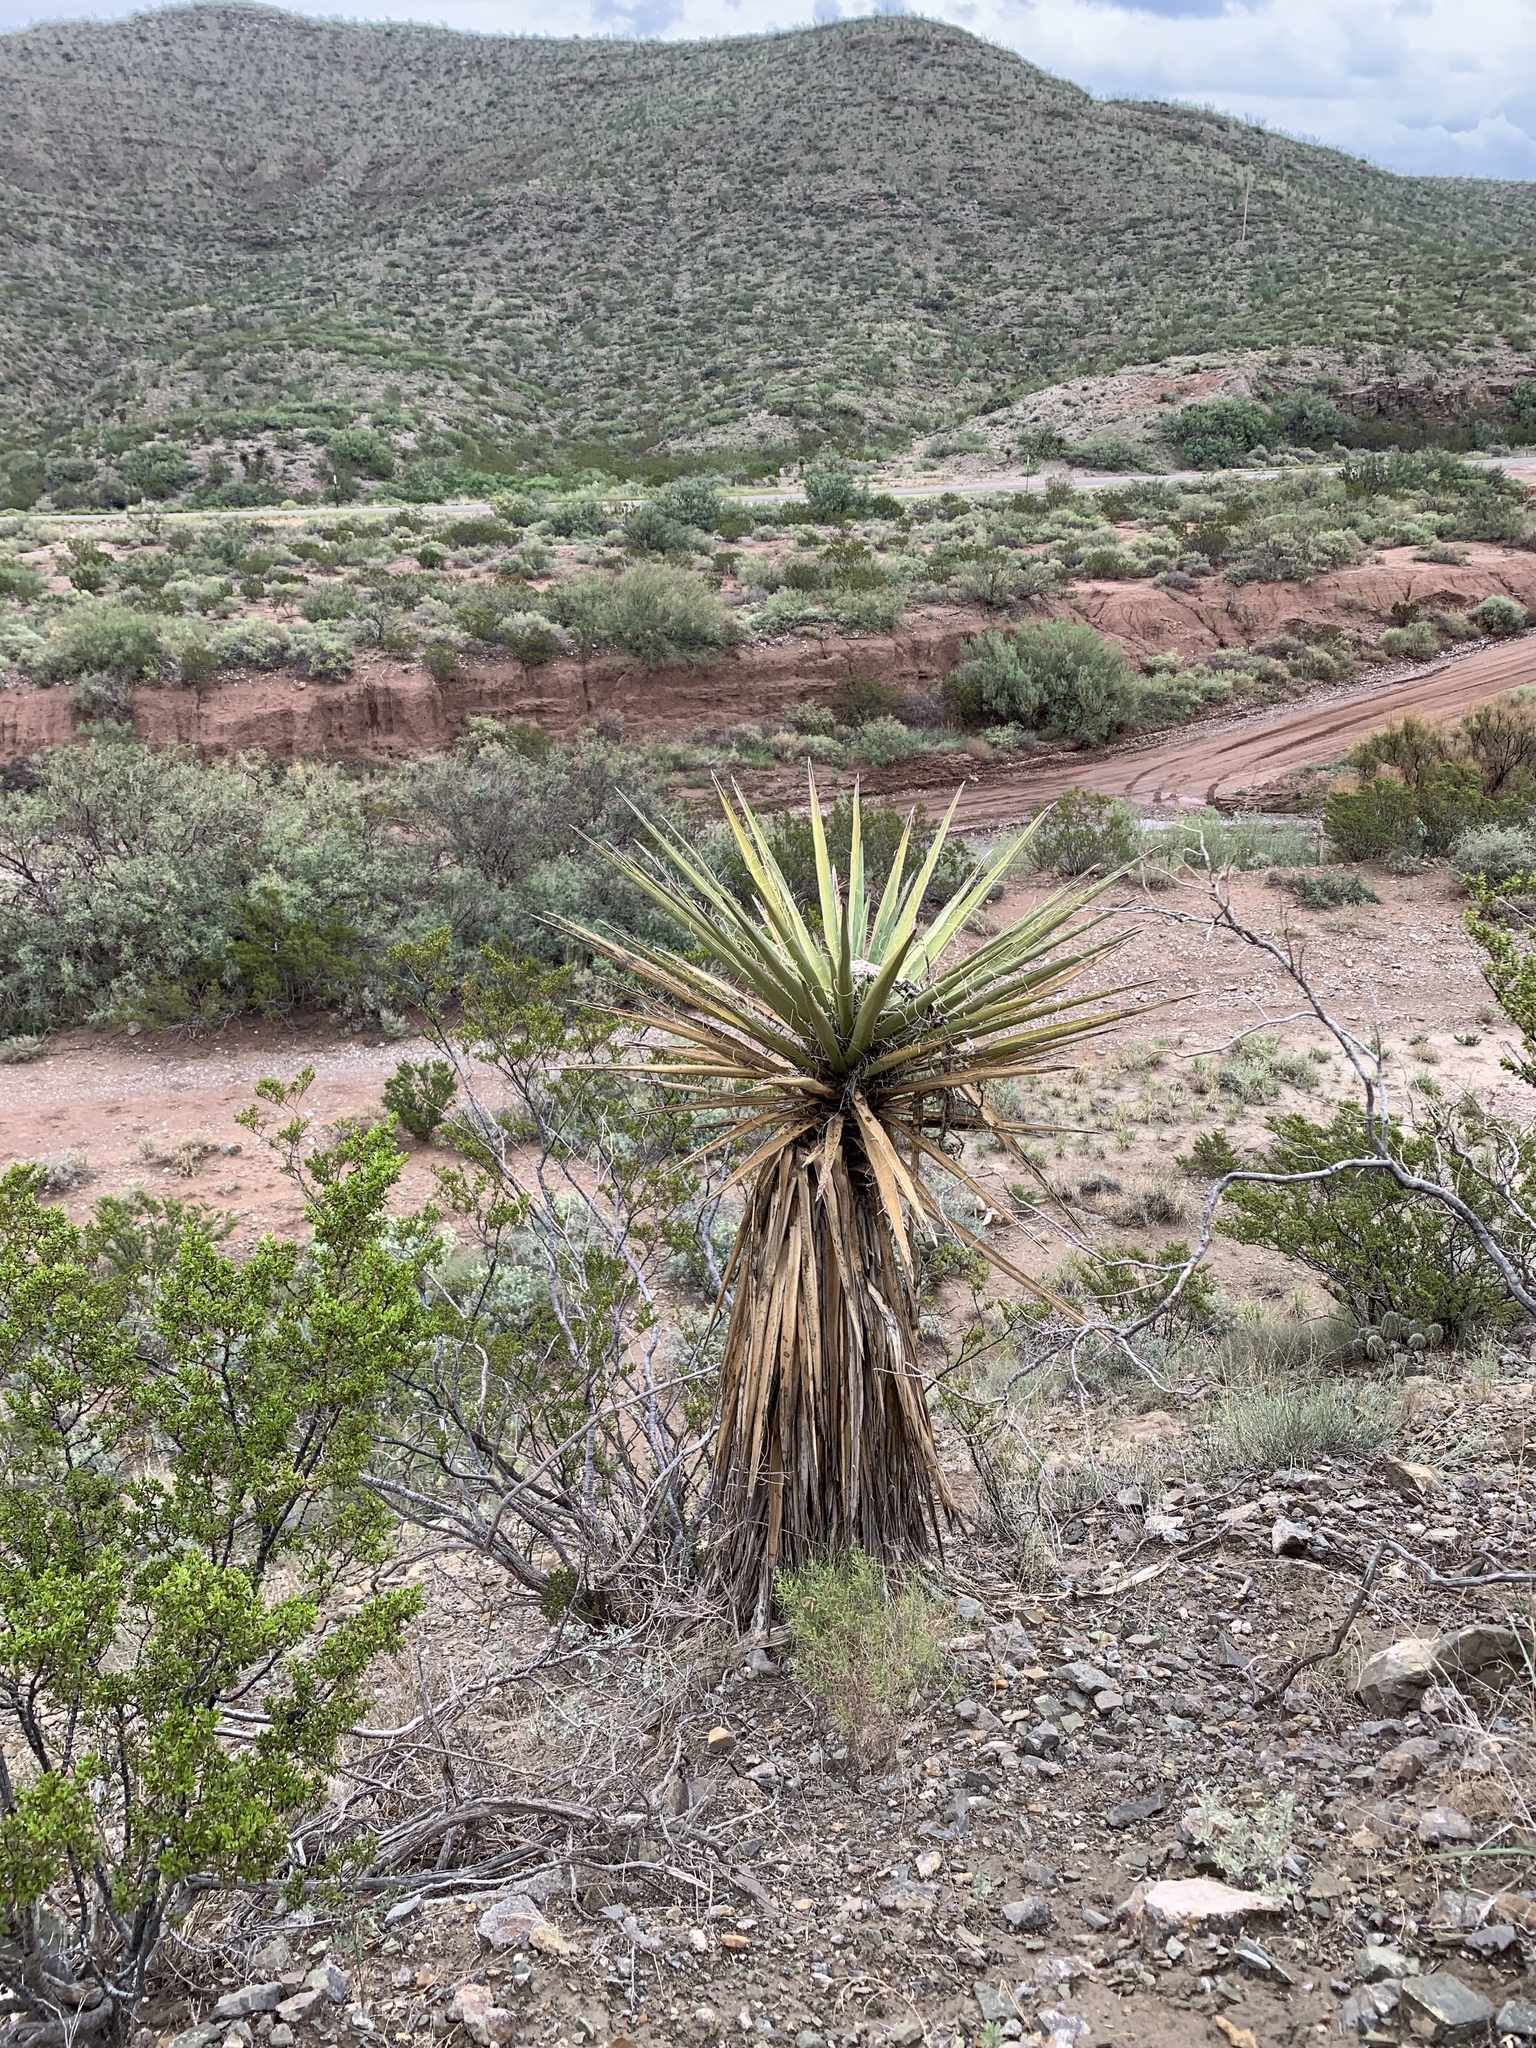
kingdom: Plantae
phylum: Tracheophyta
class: Liliopsida
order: Asparagales
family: Asparagaceae
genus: Yucca
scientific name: Yucca treculiana
